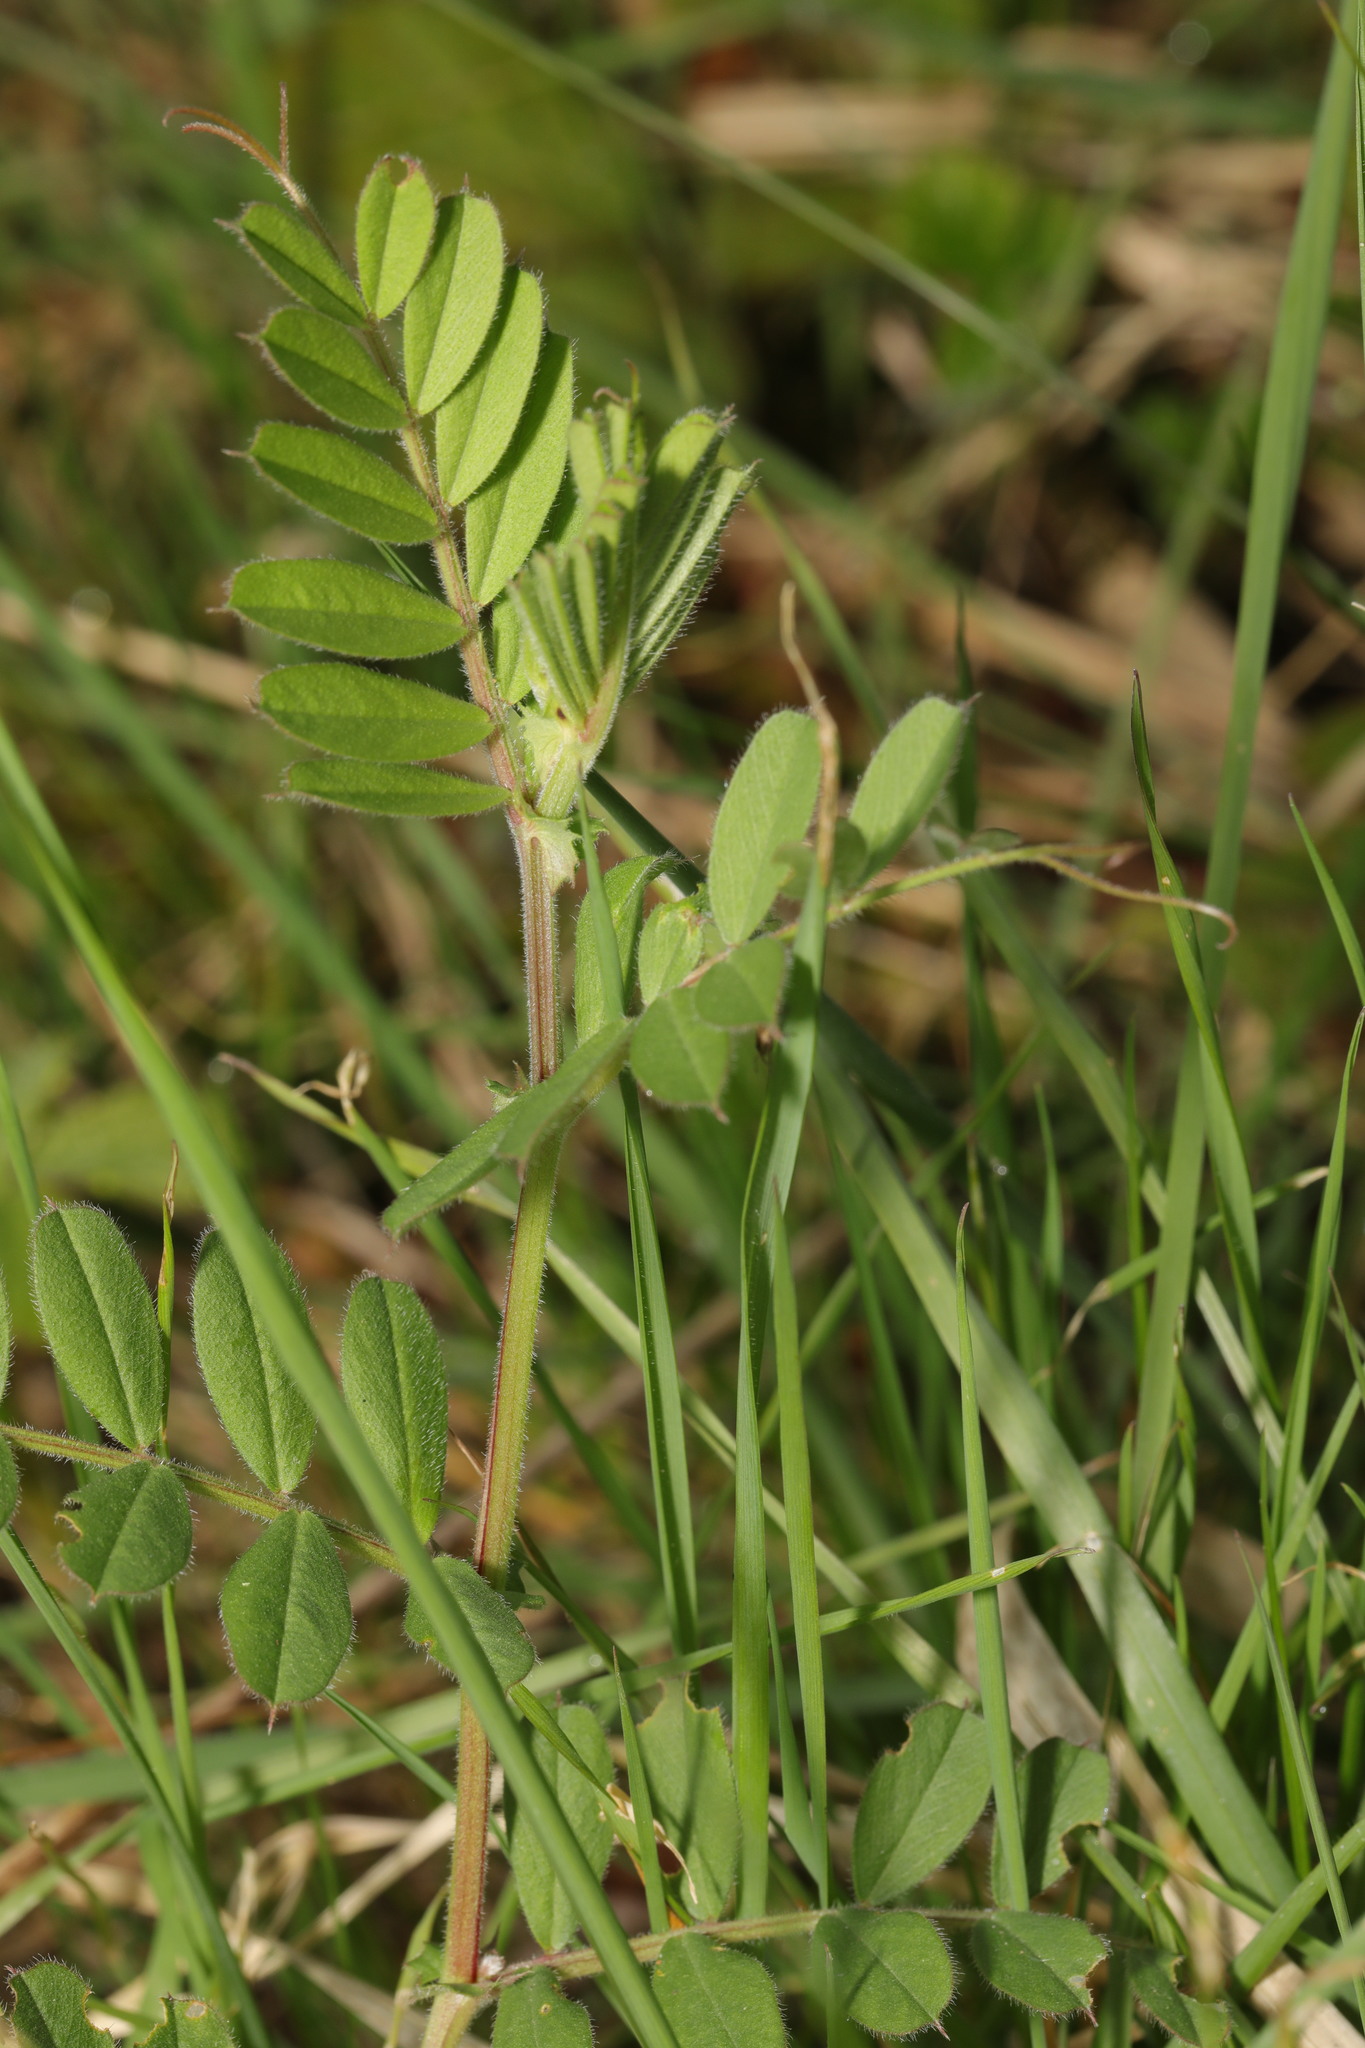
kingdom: Plantae
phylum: Tracheophyta
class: Magnoliopsida
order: Fabales
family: Fabaceae
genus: Vicia
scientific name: Vicia sativa
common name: Garden vetch
